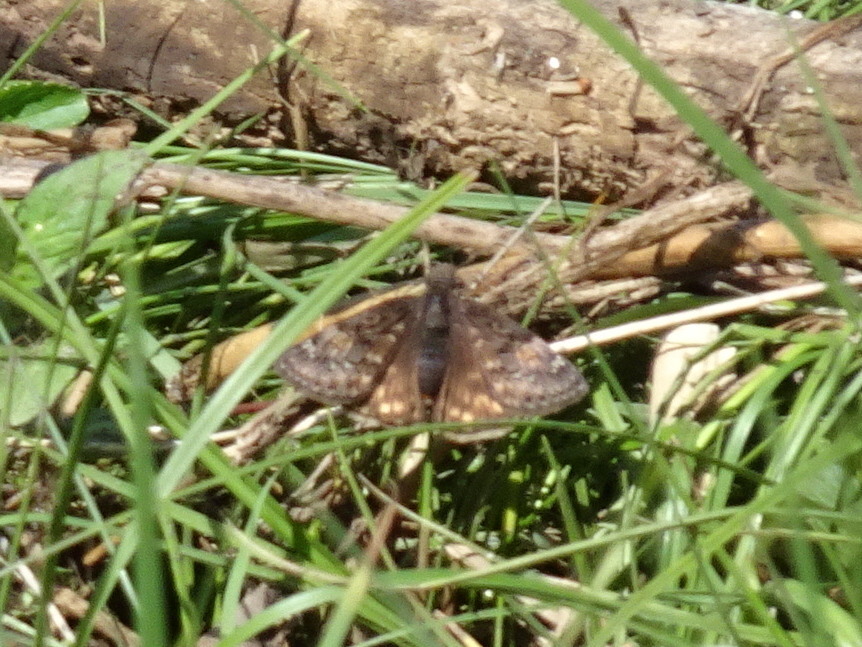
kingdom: Animalia
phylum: Arthropoda
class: Insecta
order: Lepidoptera
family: Hesperiidae
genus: Erynnis
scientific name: Erynnis juvenalis
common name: Juvenal's duskywing
